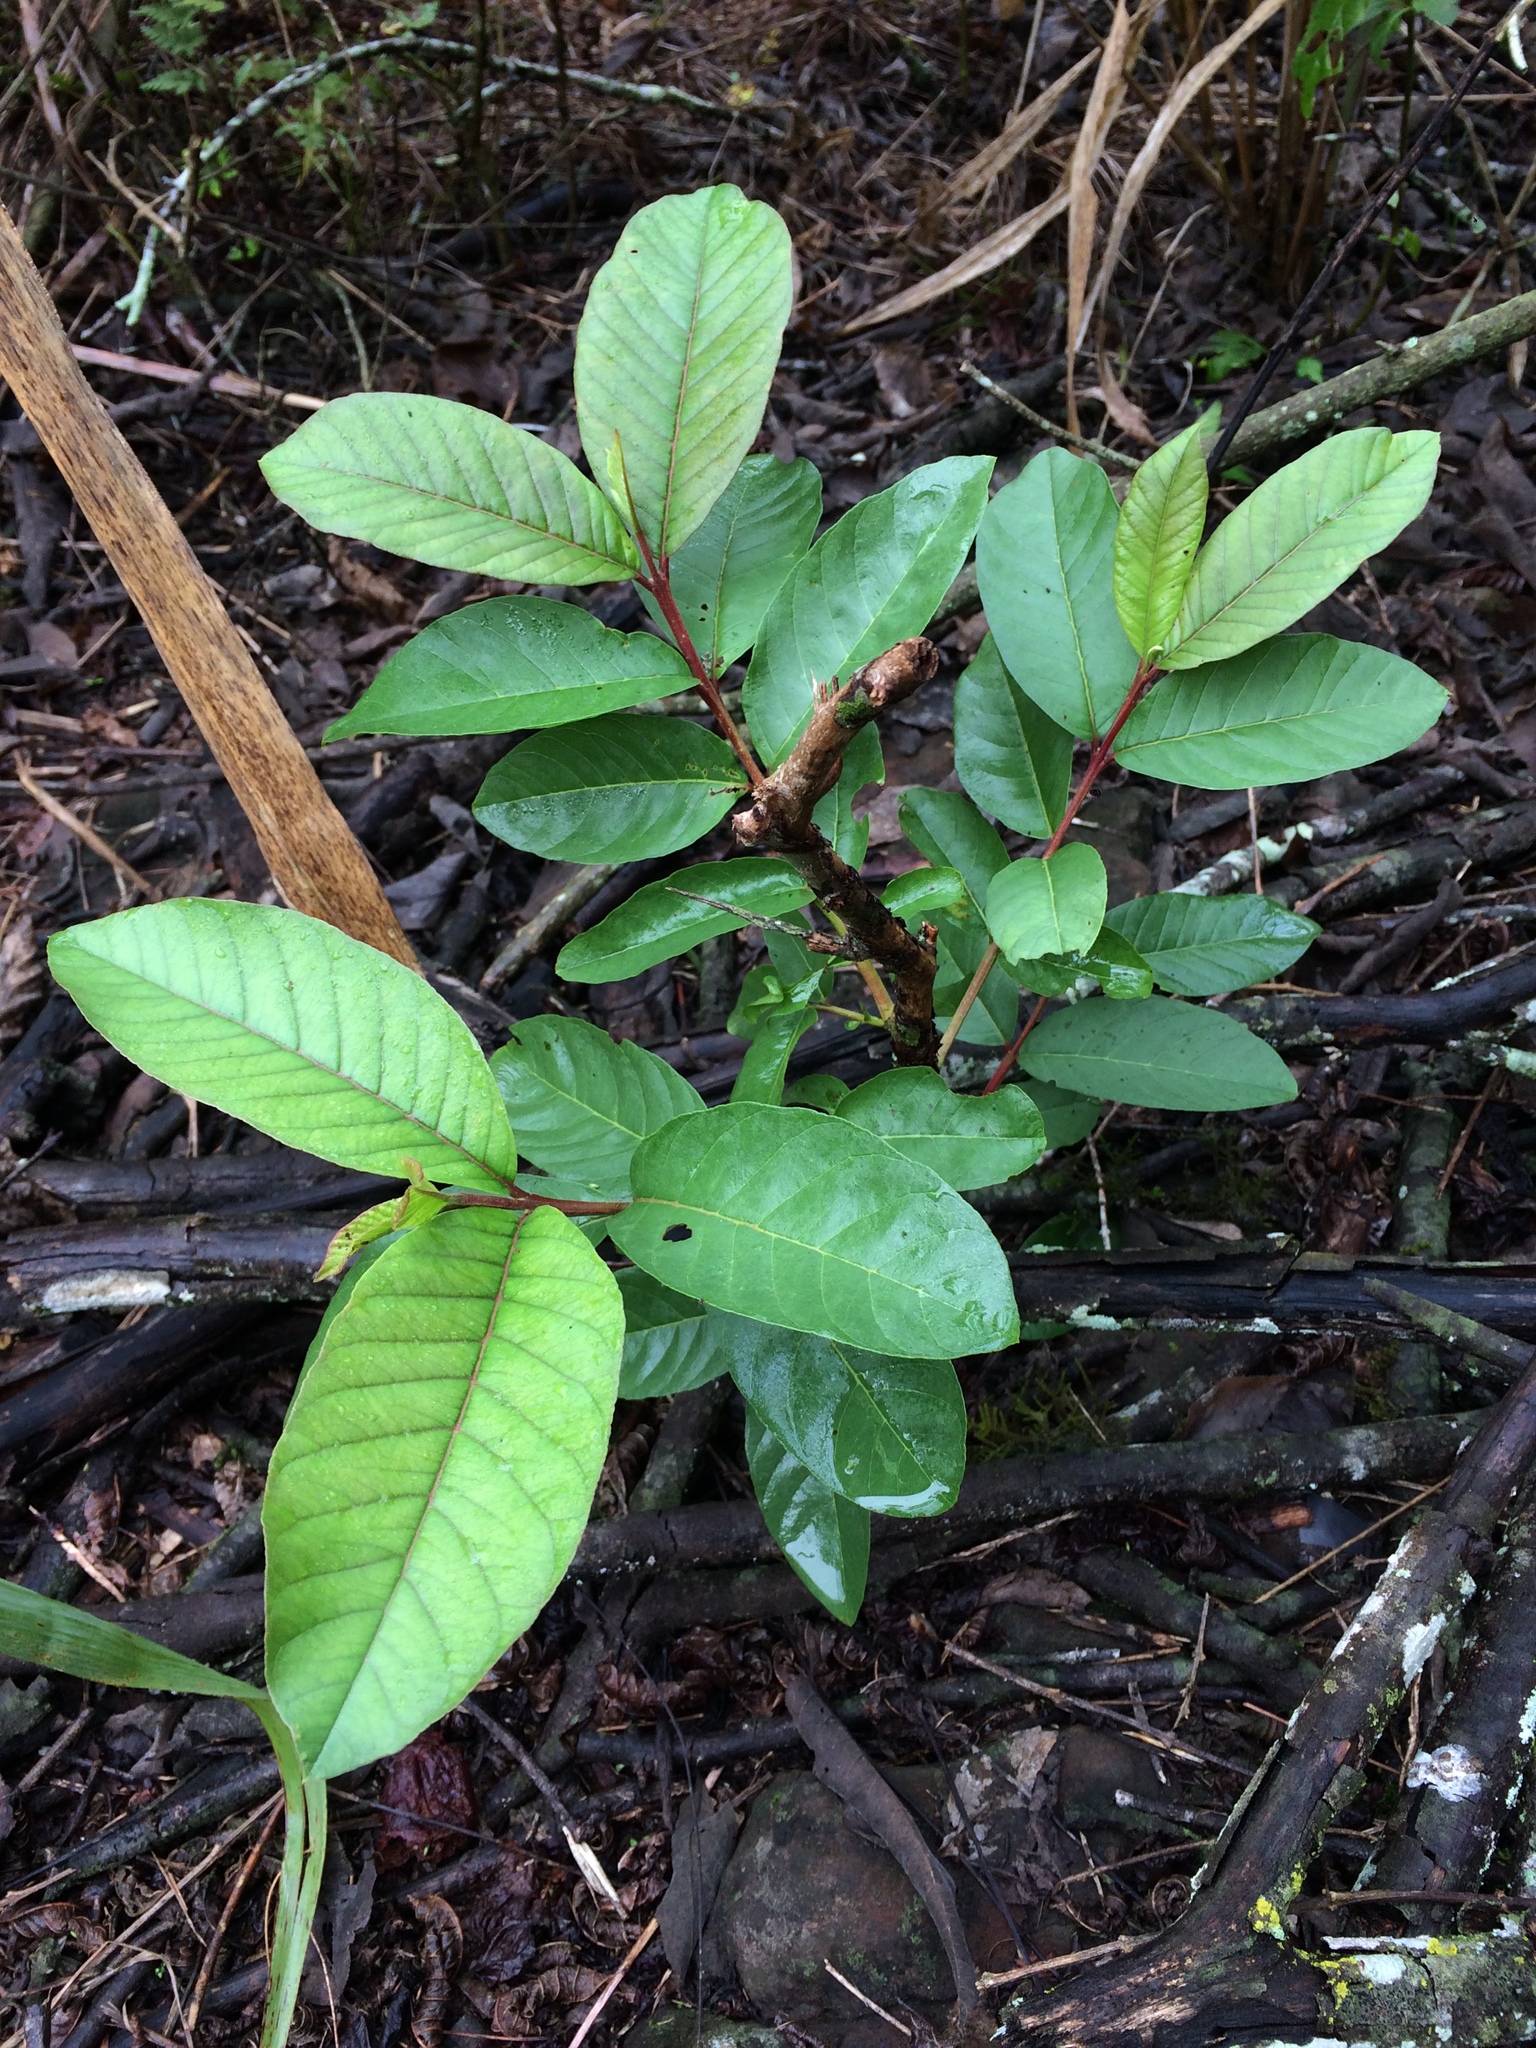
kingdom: Plantae
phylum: Tracheophyta
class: Magnoliopsida
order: Myrtales
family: Myrtaceae
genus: Psidium
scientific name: Psidium guajava
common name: Guava
